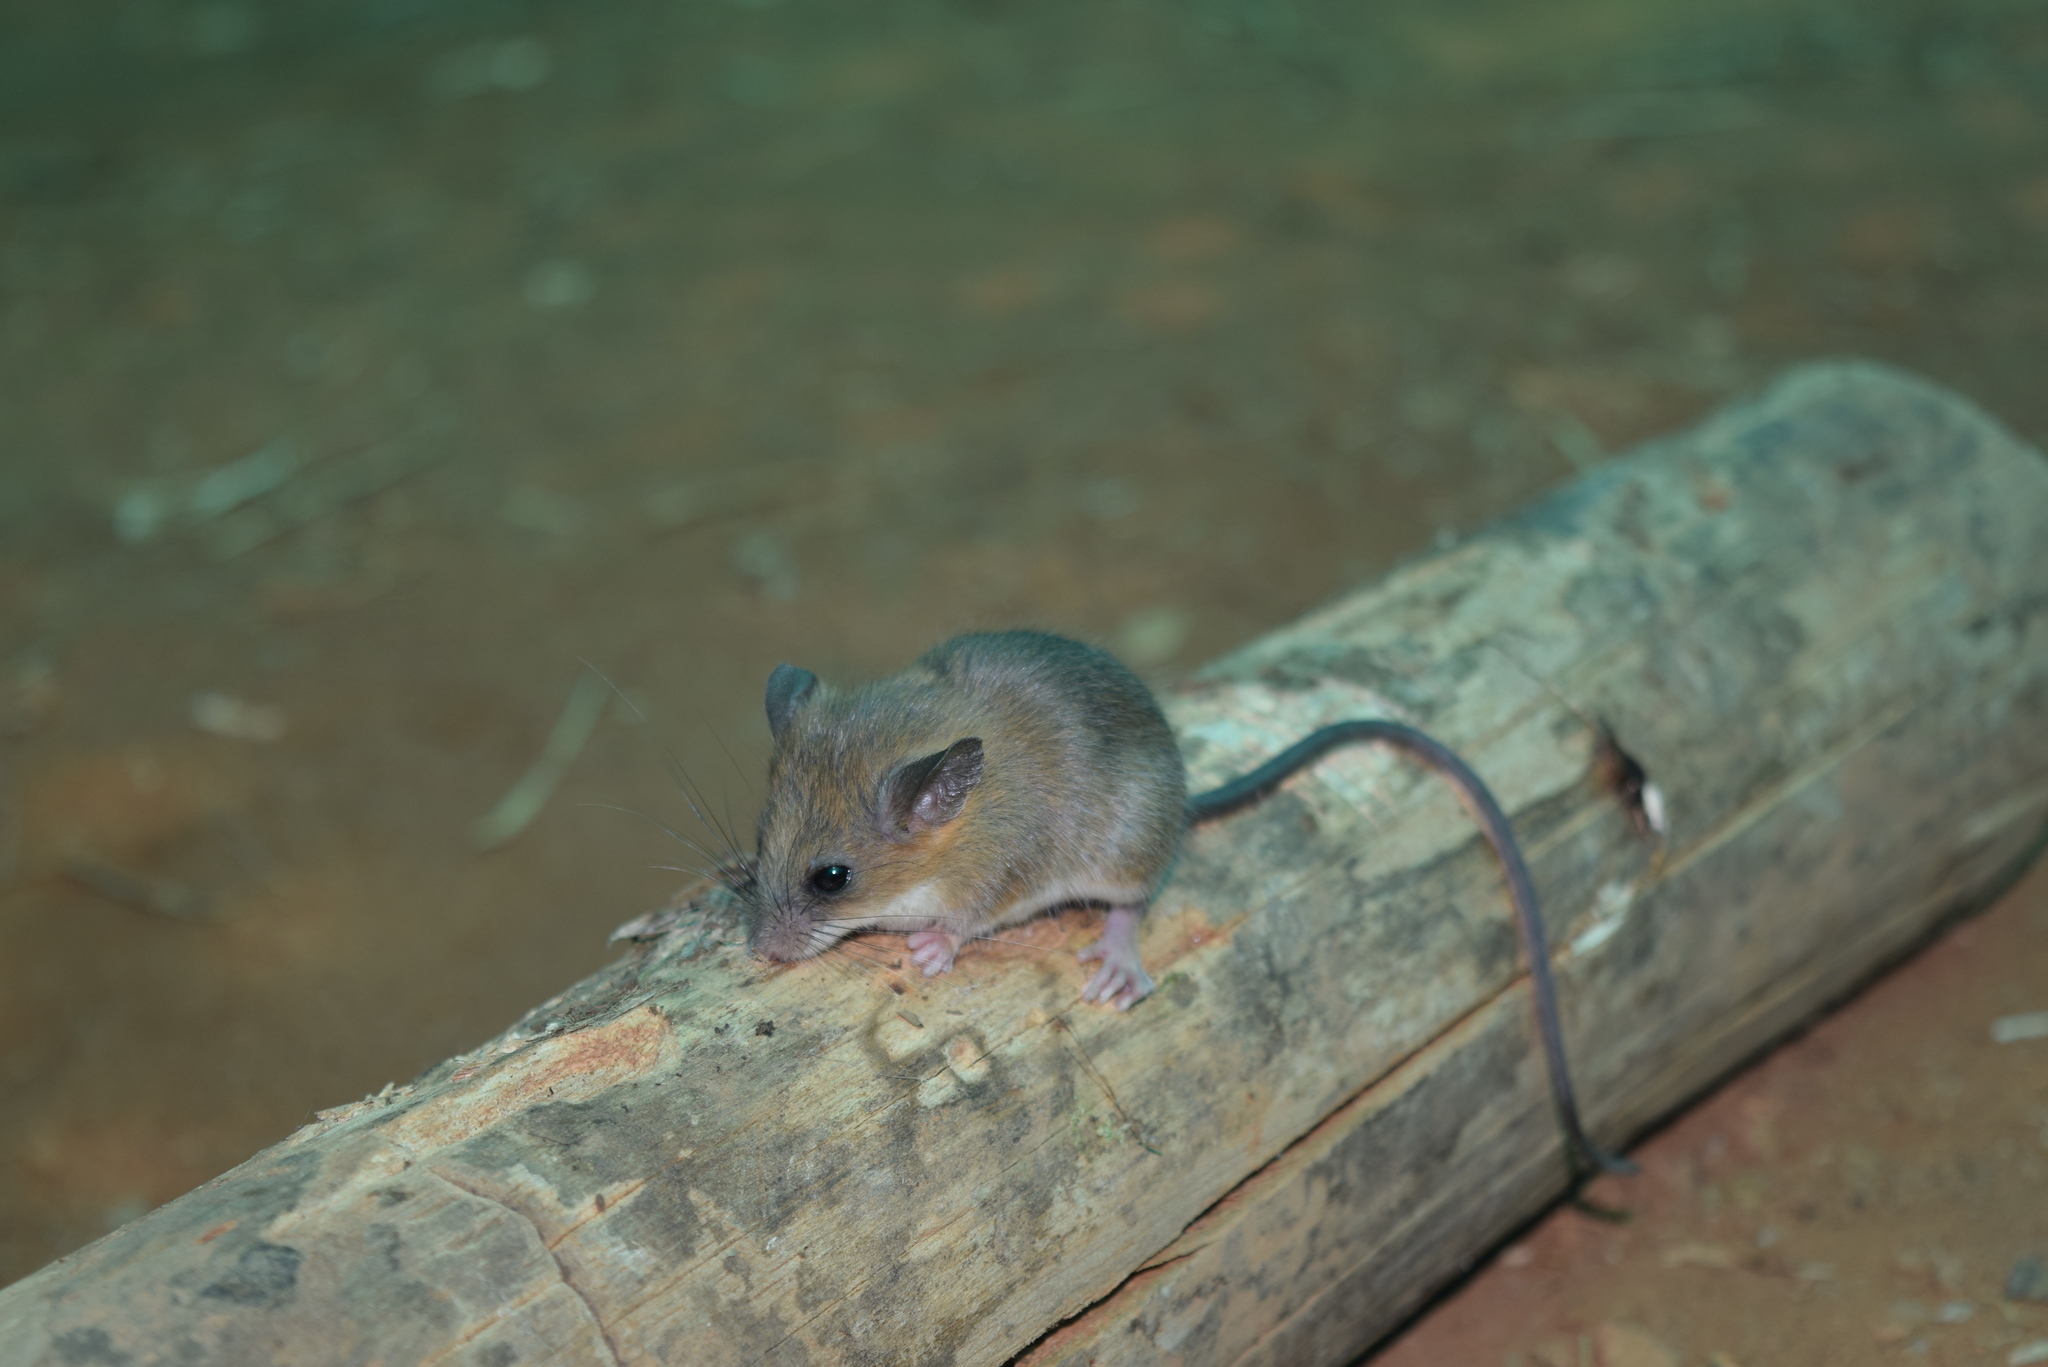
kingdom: Animalia
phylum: Chordata
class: Mammalia
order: Rodentia
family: Muridae
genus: Vandeleuria
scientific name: Vandeleuria nilagirica
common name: Nilgiri vandeleuria
